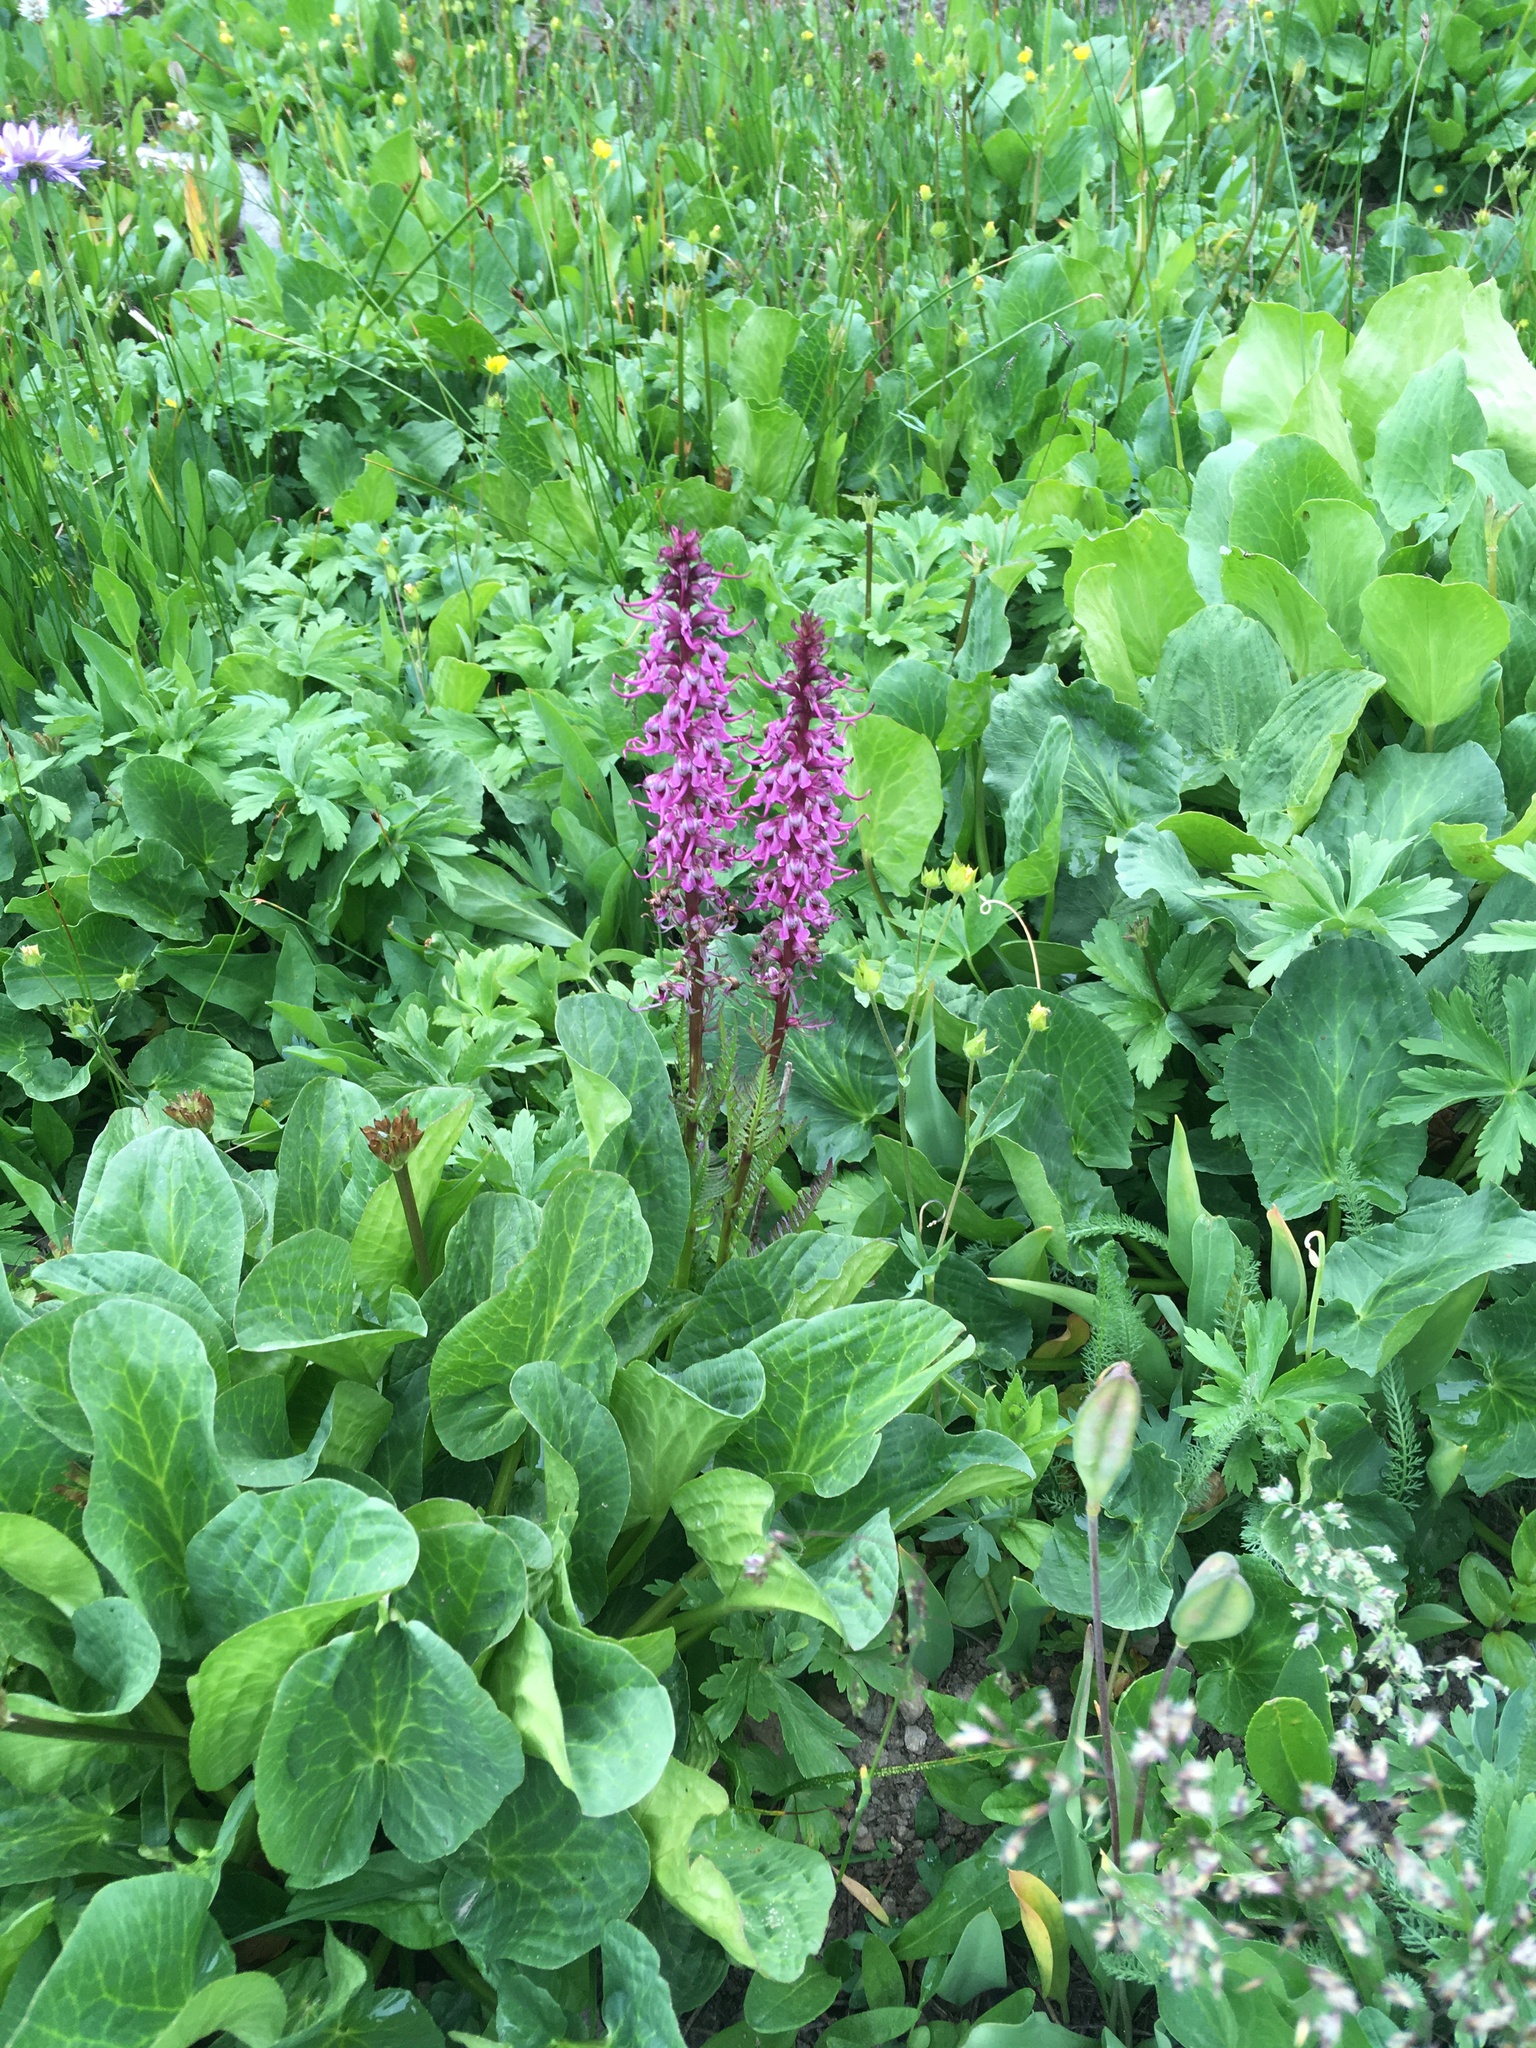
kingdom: Plantae
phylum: Tracheophyta
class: Magnoliopsida
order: Lamiales
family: Orobanchaceae
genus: Pedicularis
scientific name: Pedicularis groenlandica
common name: Elephant's-head
